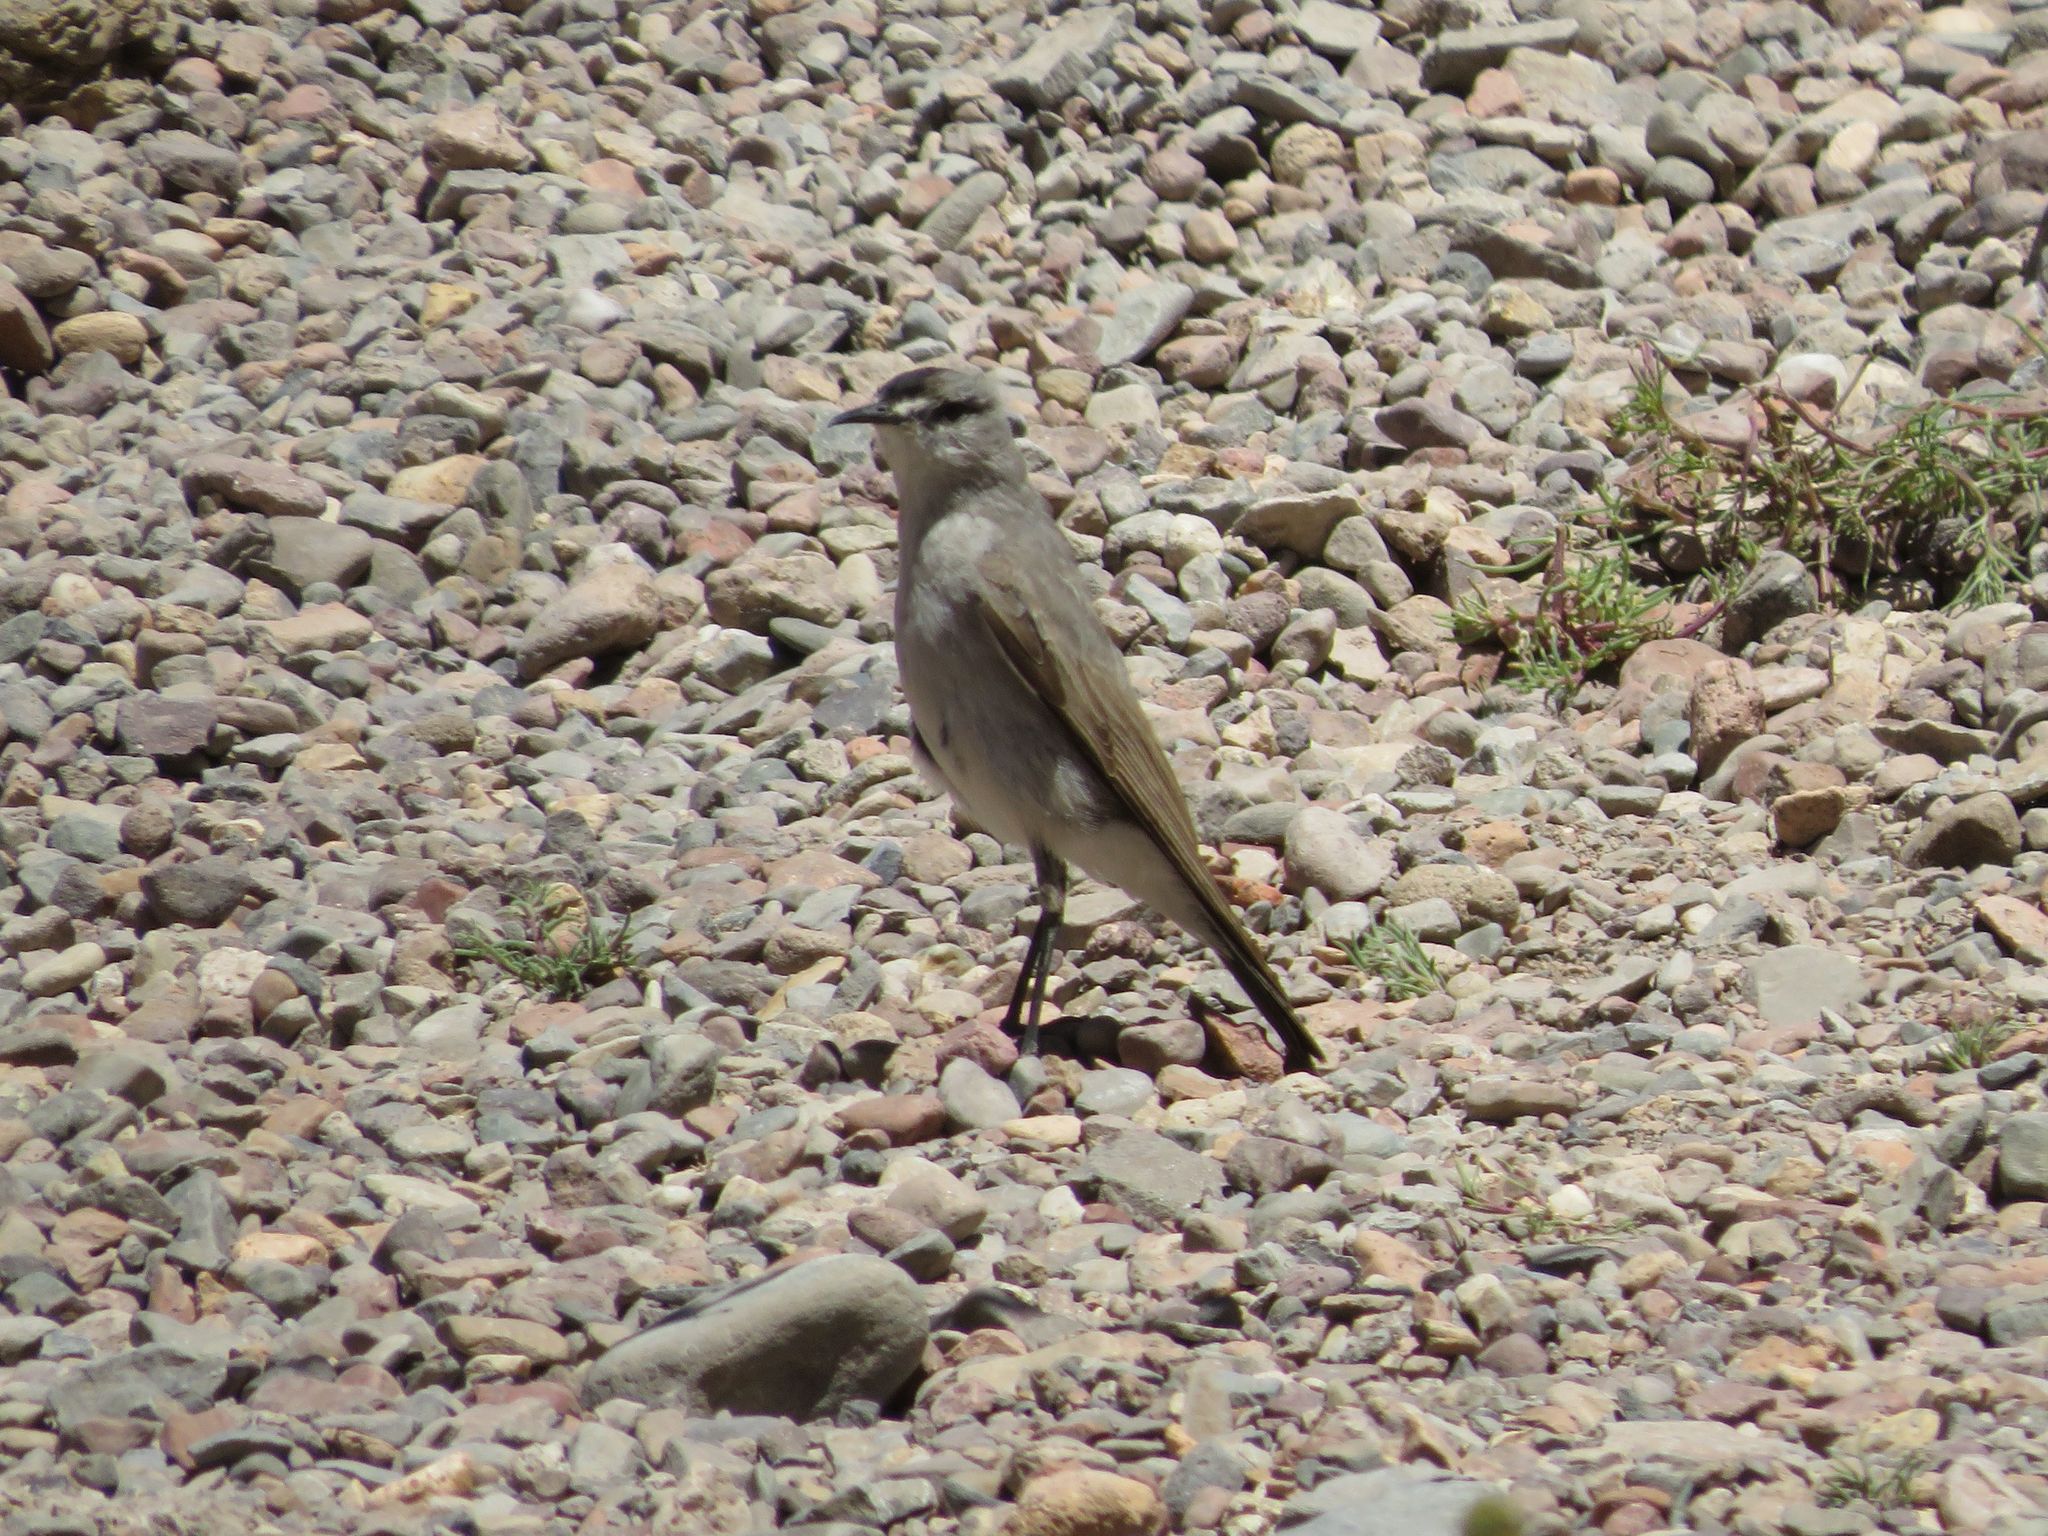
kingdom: Animalia
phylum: Chordata
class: Aves
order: Passeriformes
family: Tyrannidae
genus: Muscisaxicola
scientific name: Muscisaxicola frontalis
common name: Black-fronted ground tyrant
